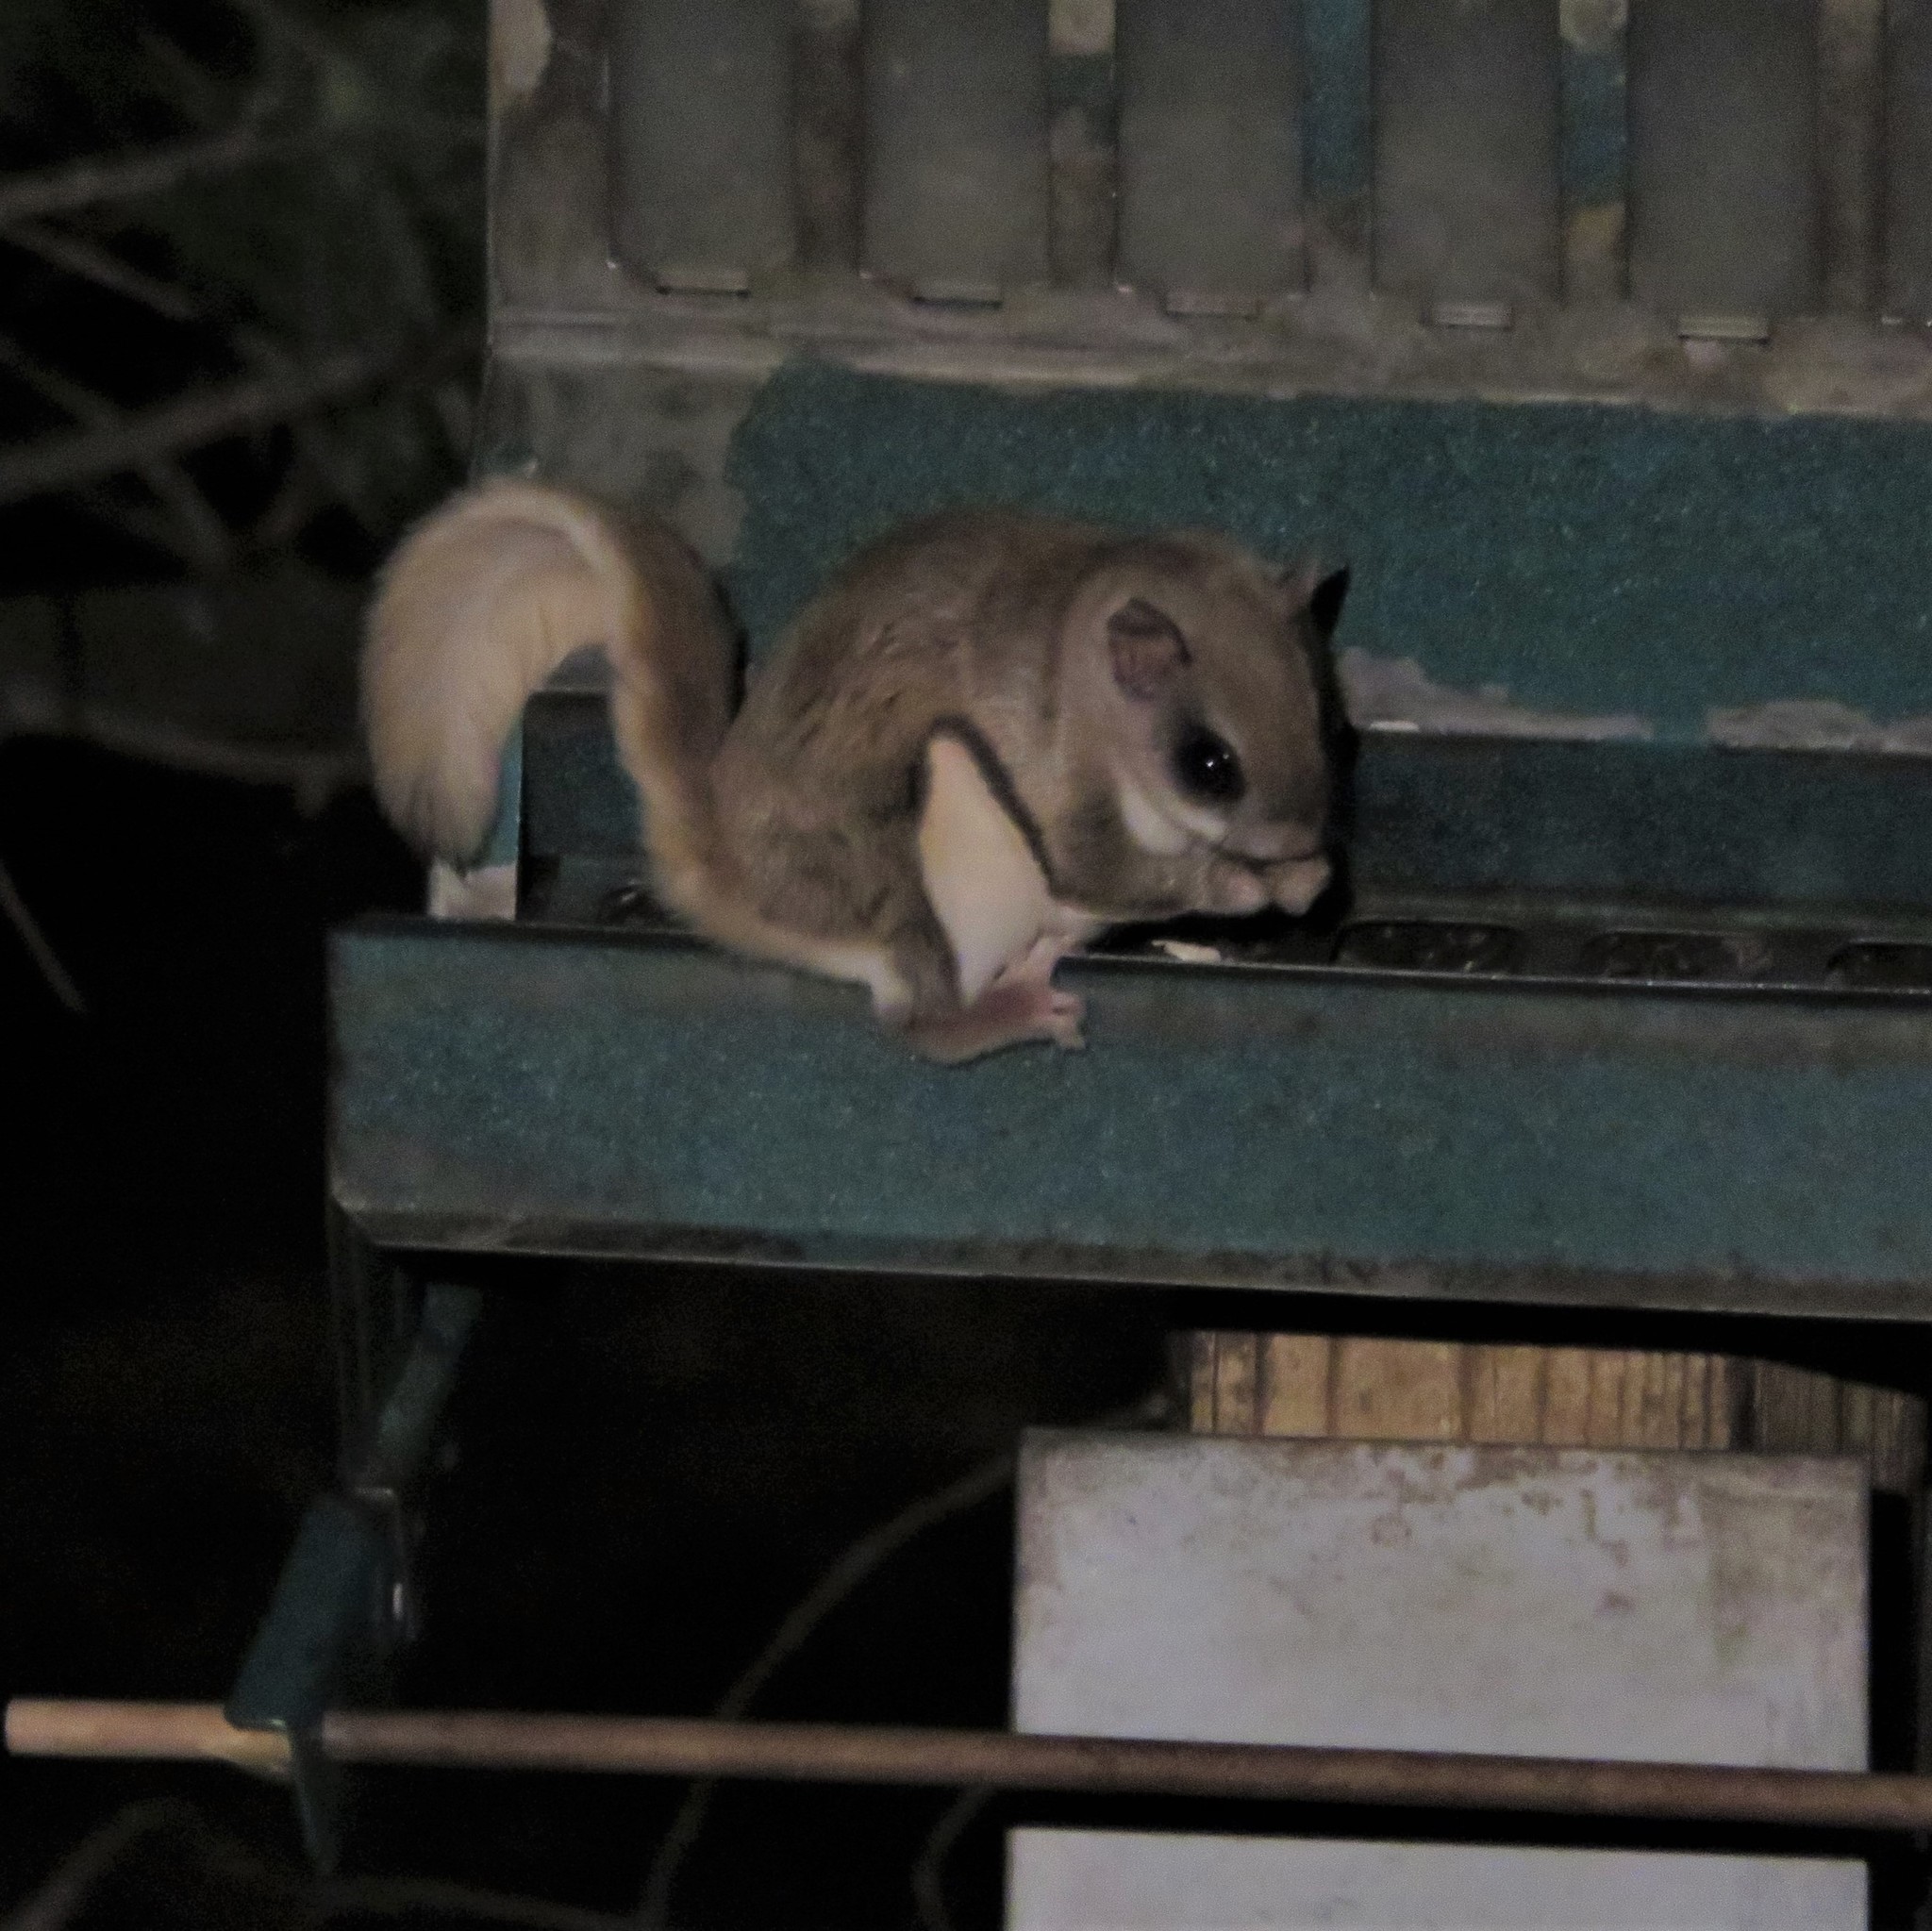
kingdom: Animalia
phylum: Chordata
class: Mammalia
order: Rodentia
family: Sciuridae
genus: Glaucomys
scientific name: Glaucomys volans
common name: Southern flying squirrel
